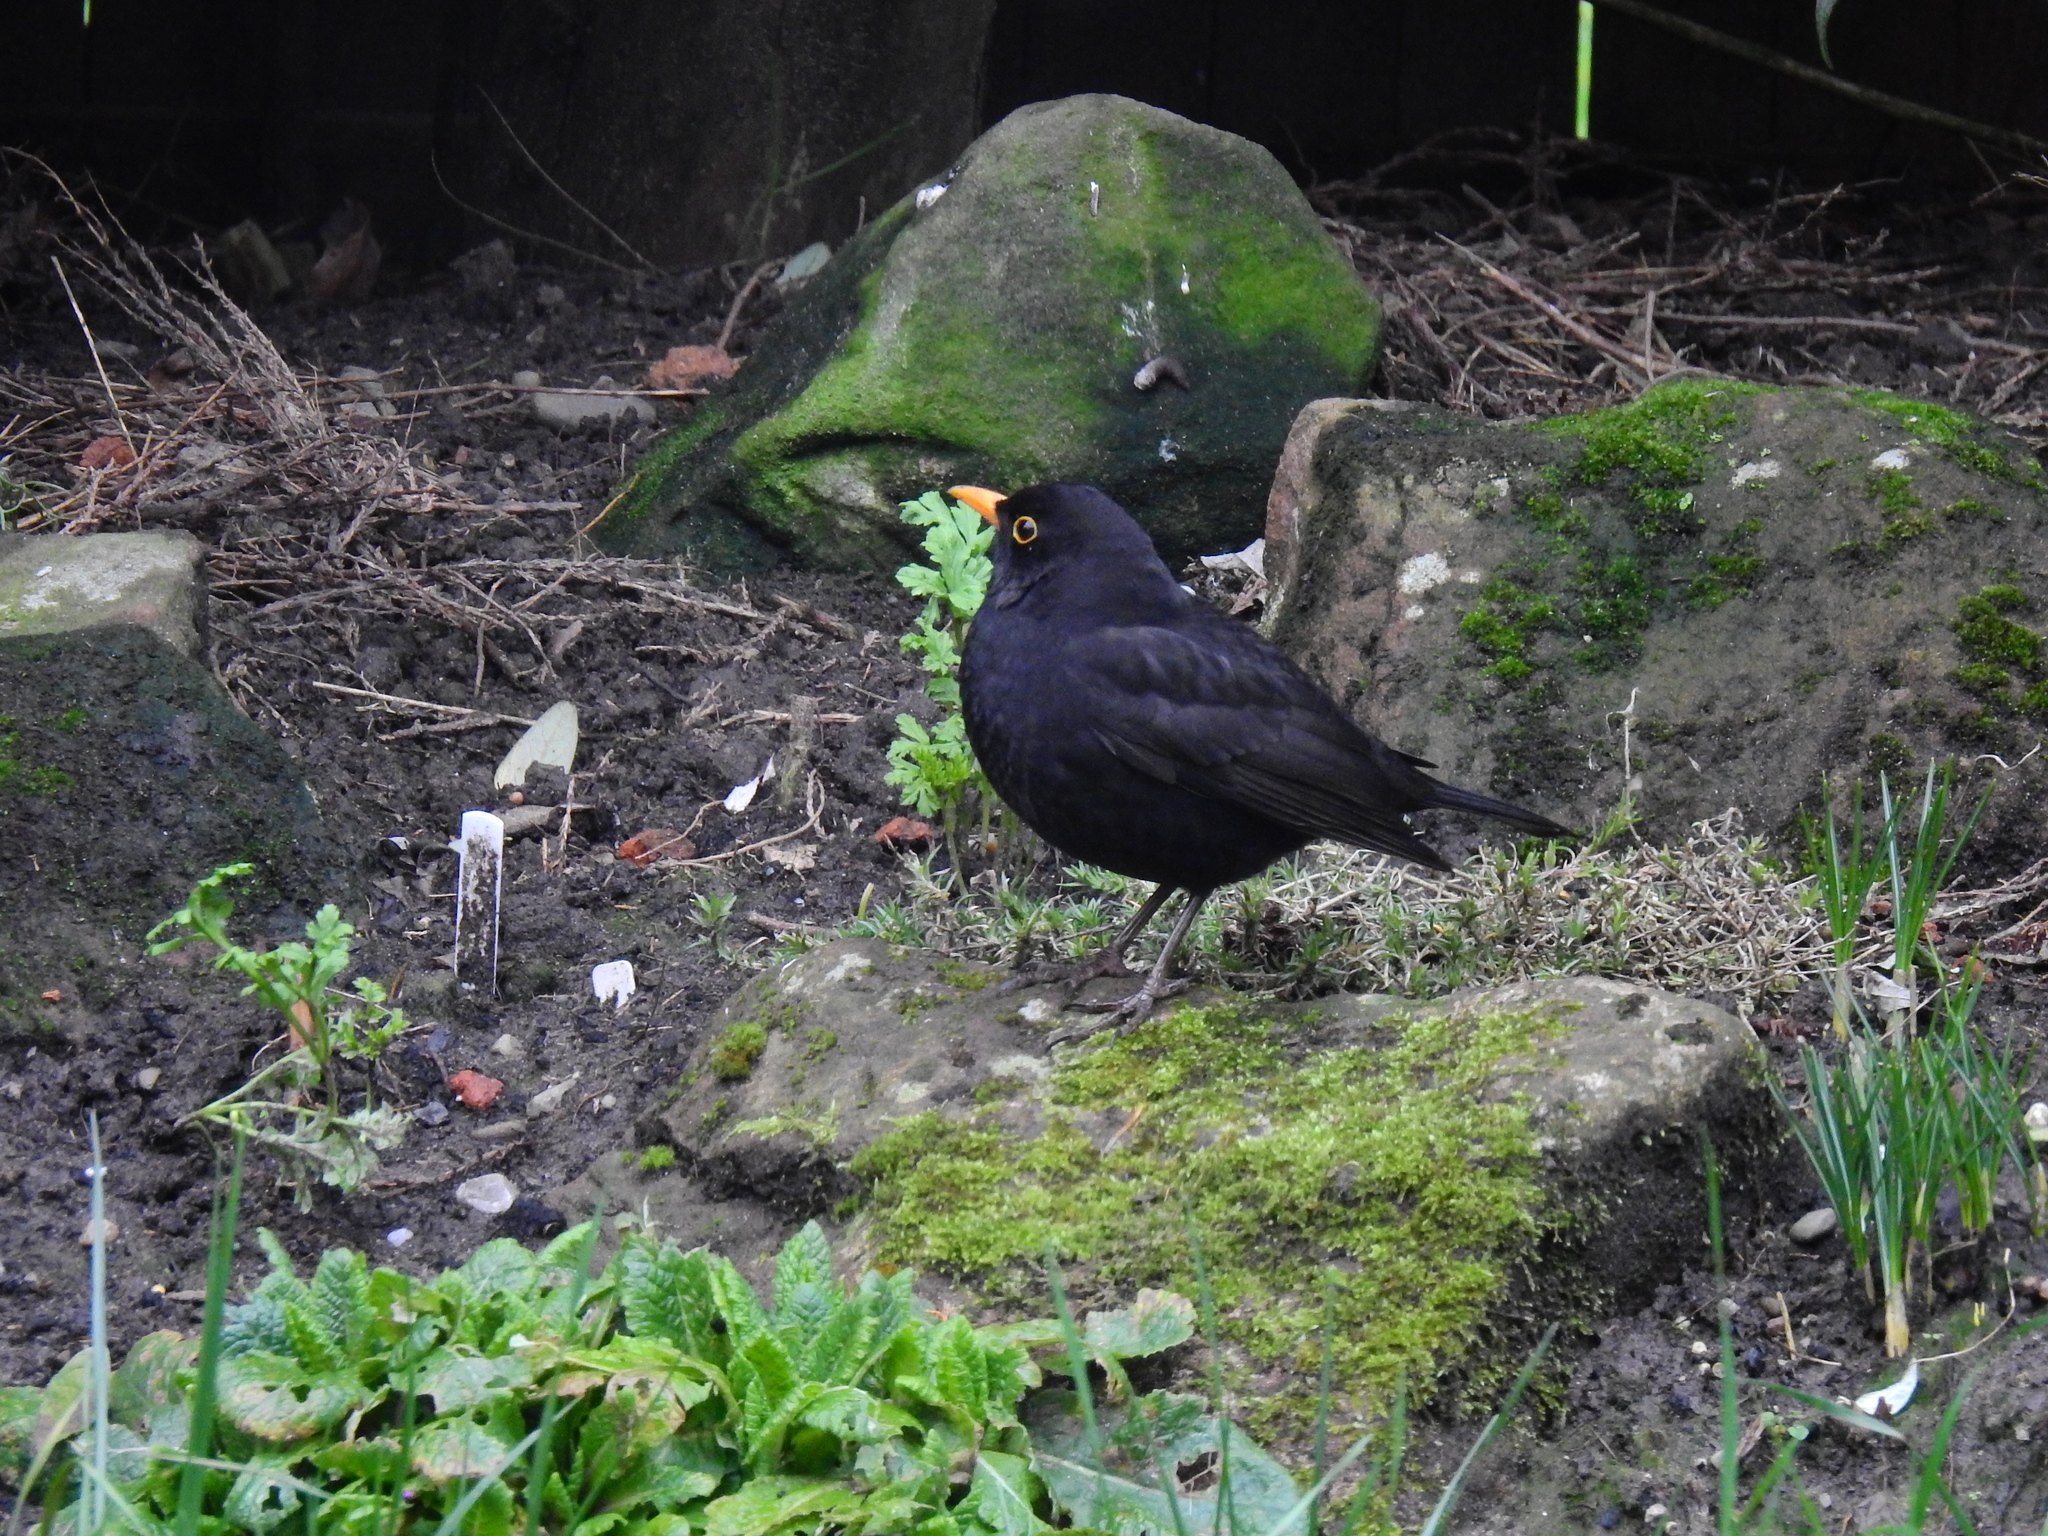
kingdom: Animalia
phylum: Chordata
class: Aves
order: Passeriformes
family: Turdidae
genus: Turdus
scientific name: Turdus merula
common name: Common blackbird
